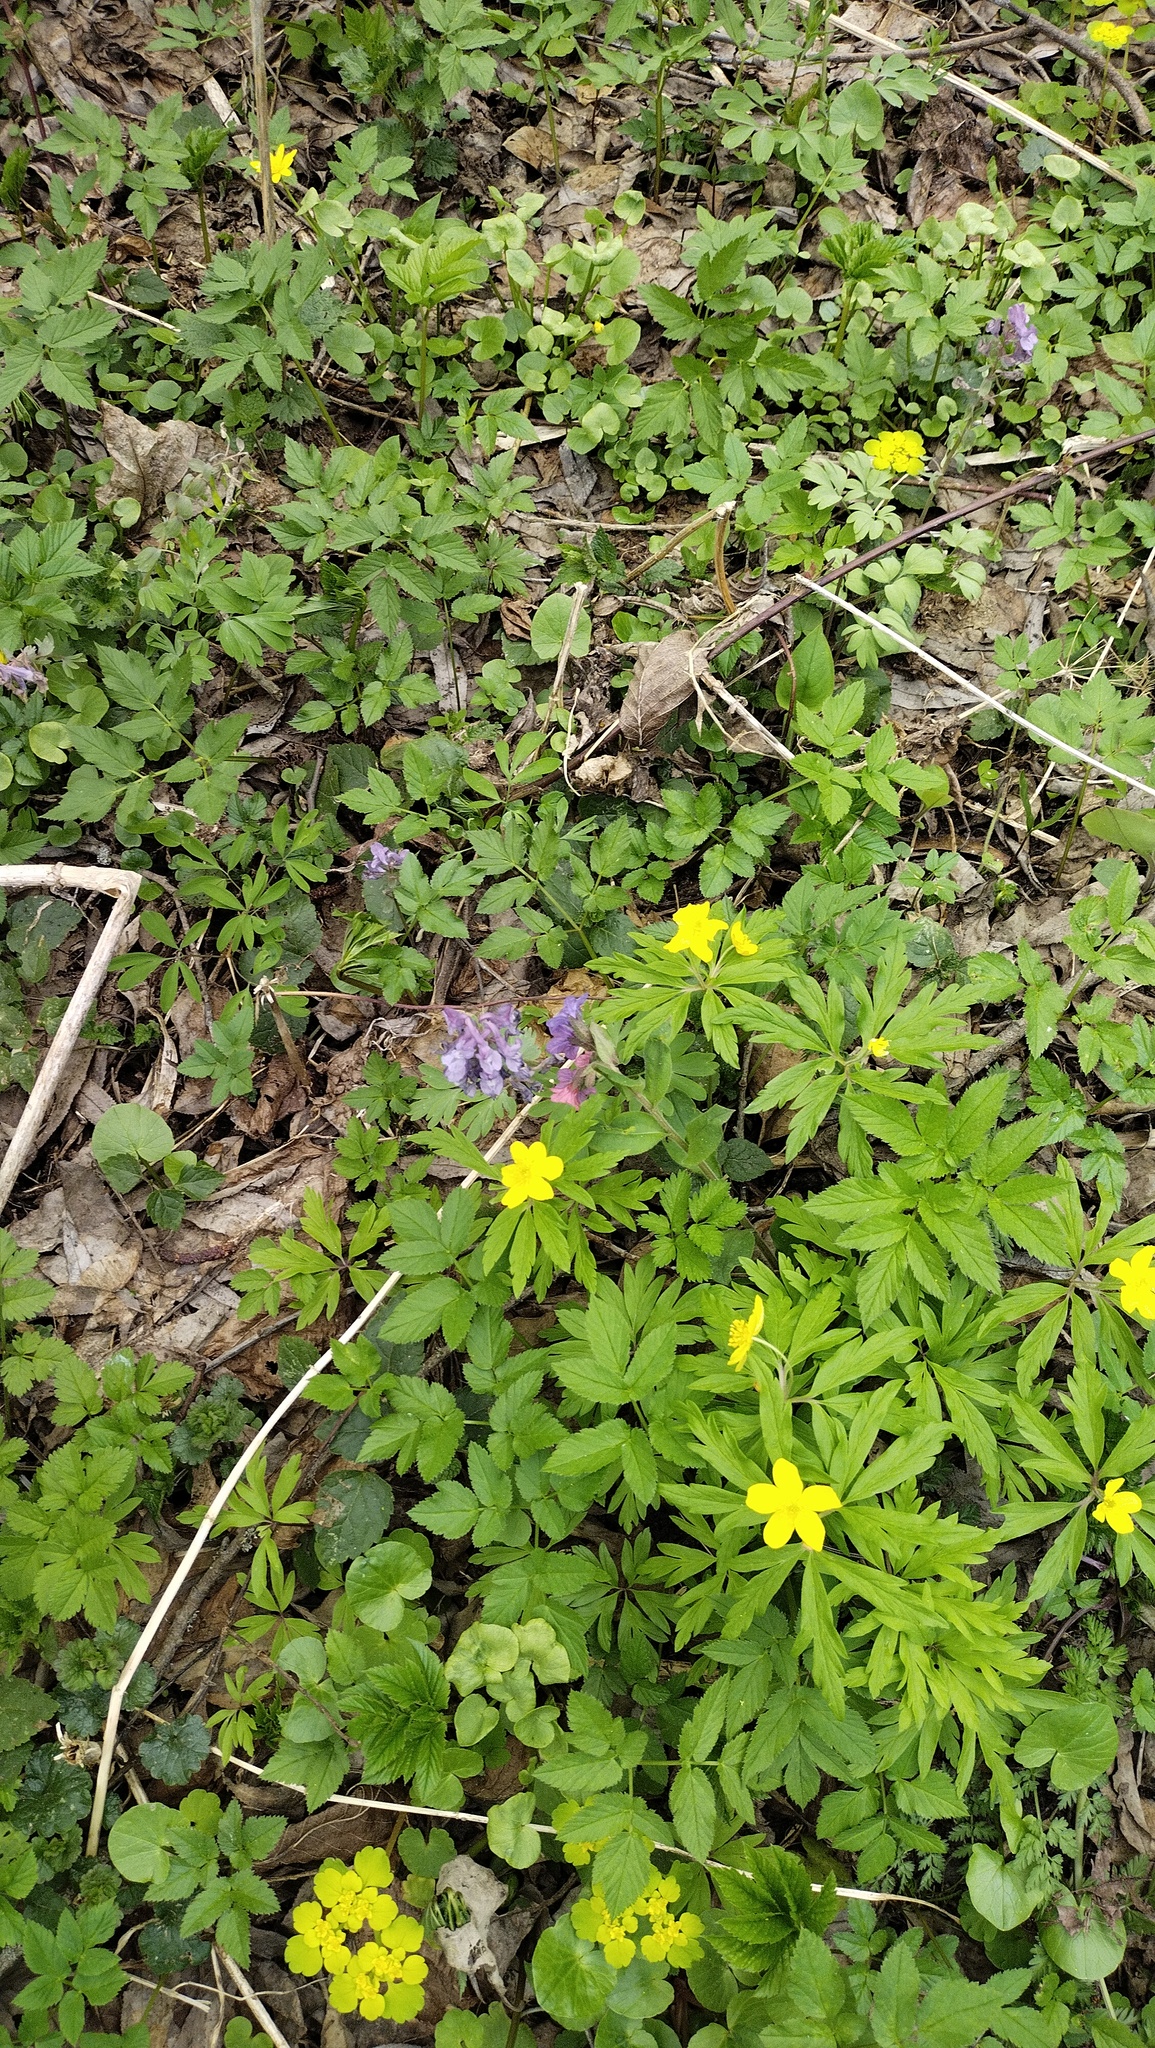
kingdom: Plantae
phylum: Tracheophyta
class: Magnoliopsida
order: Ranunculales
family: Ranunculaceae
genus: Anemone
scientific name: Anemone ranunculoides
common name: Yellow anemone
